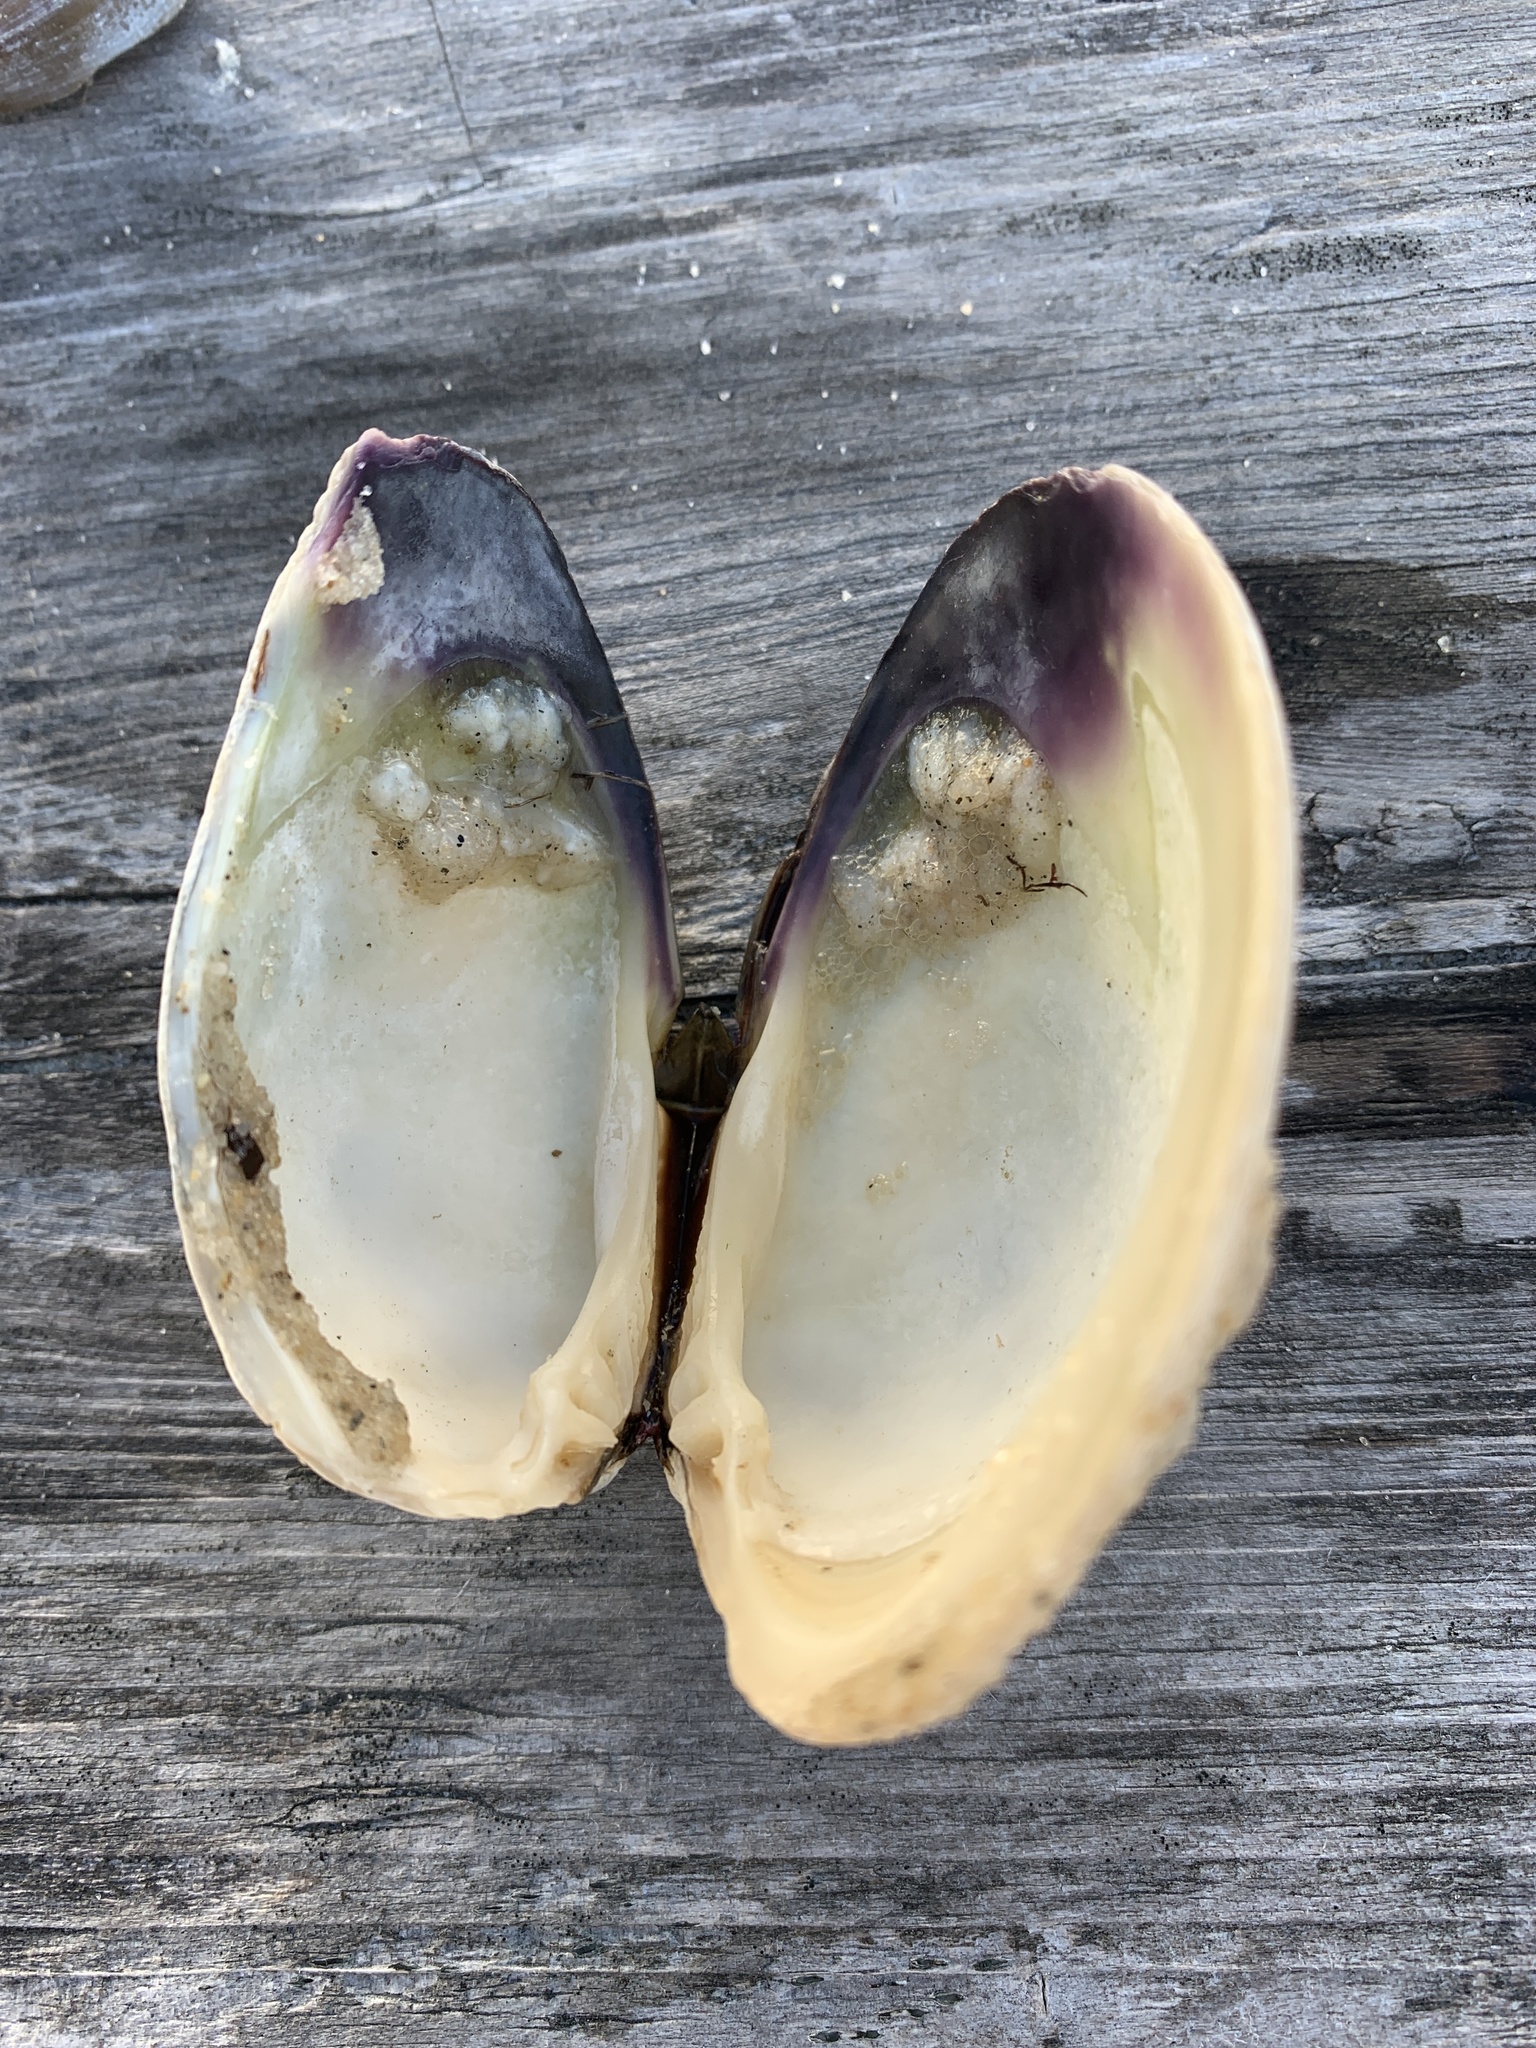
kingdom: Animalia
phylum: Mollusca
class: Bivalvia
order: Venerida
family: Veneridae
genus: Mercenaria
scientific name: Mercenaria mercenaria
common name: American hard-shelled clam
